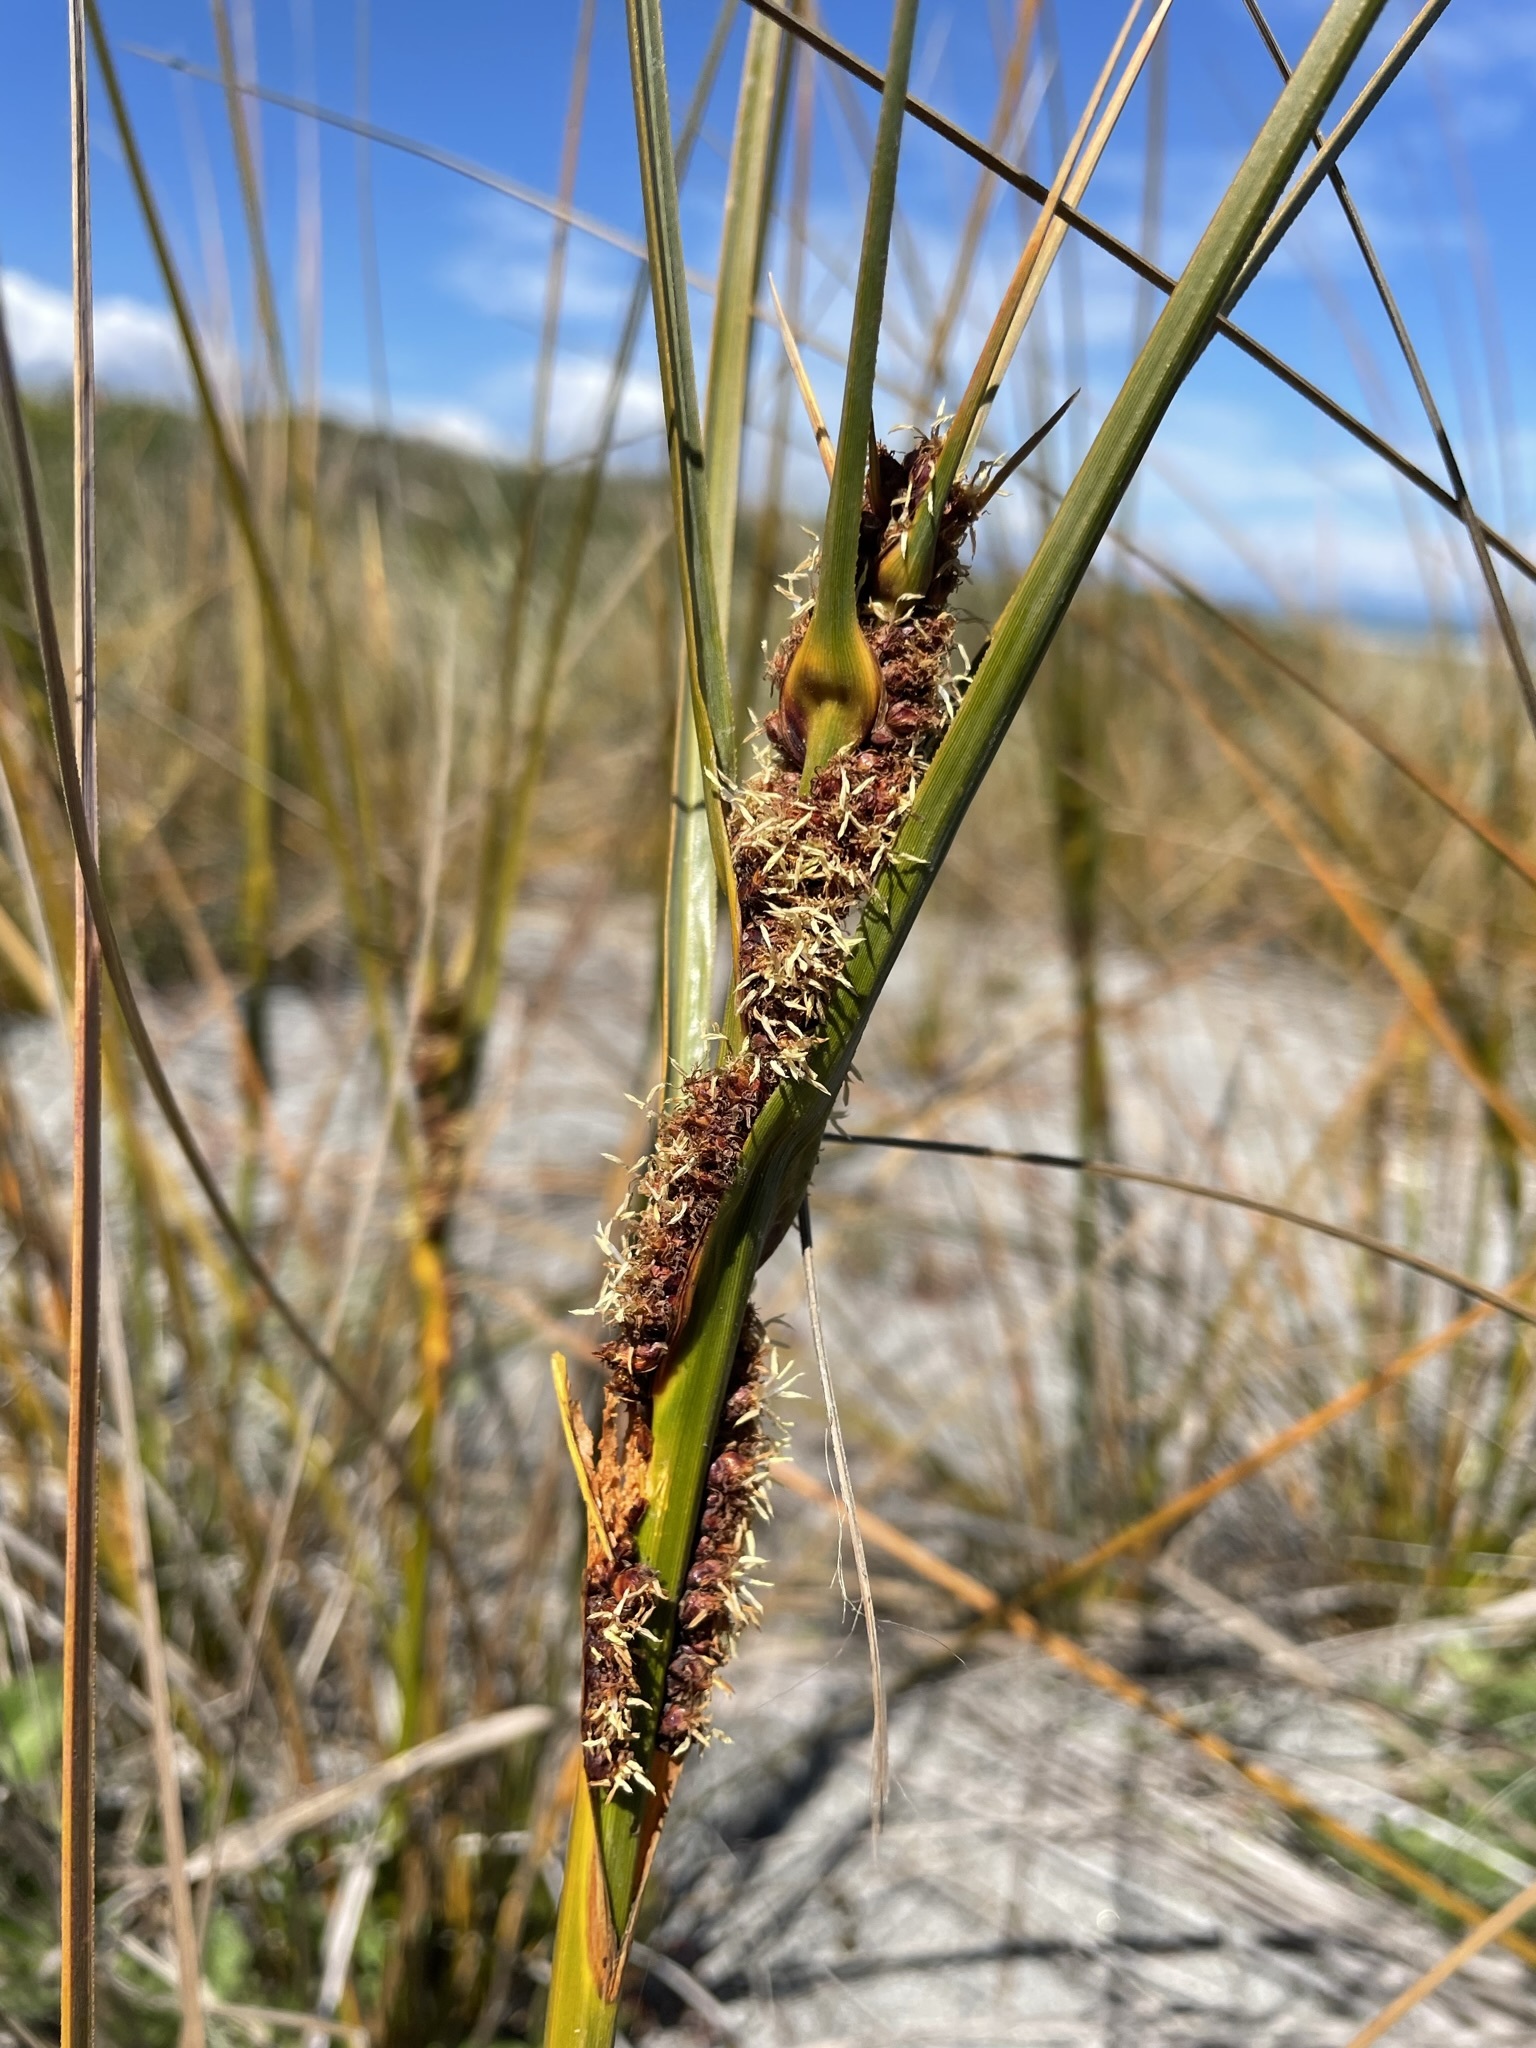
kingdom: Plantae
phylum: Tracheophyta
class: Liliopsida
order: Poales
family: Cyperaceae
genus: Ficinia
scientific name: Ficinia spiralis
